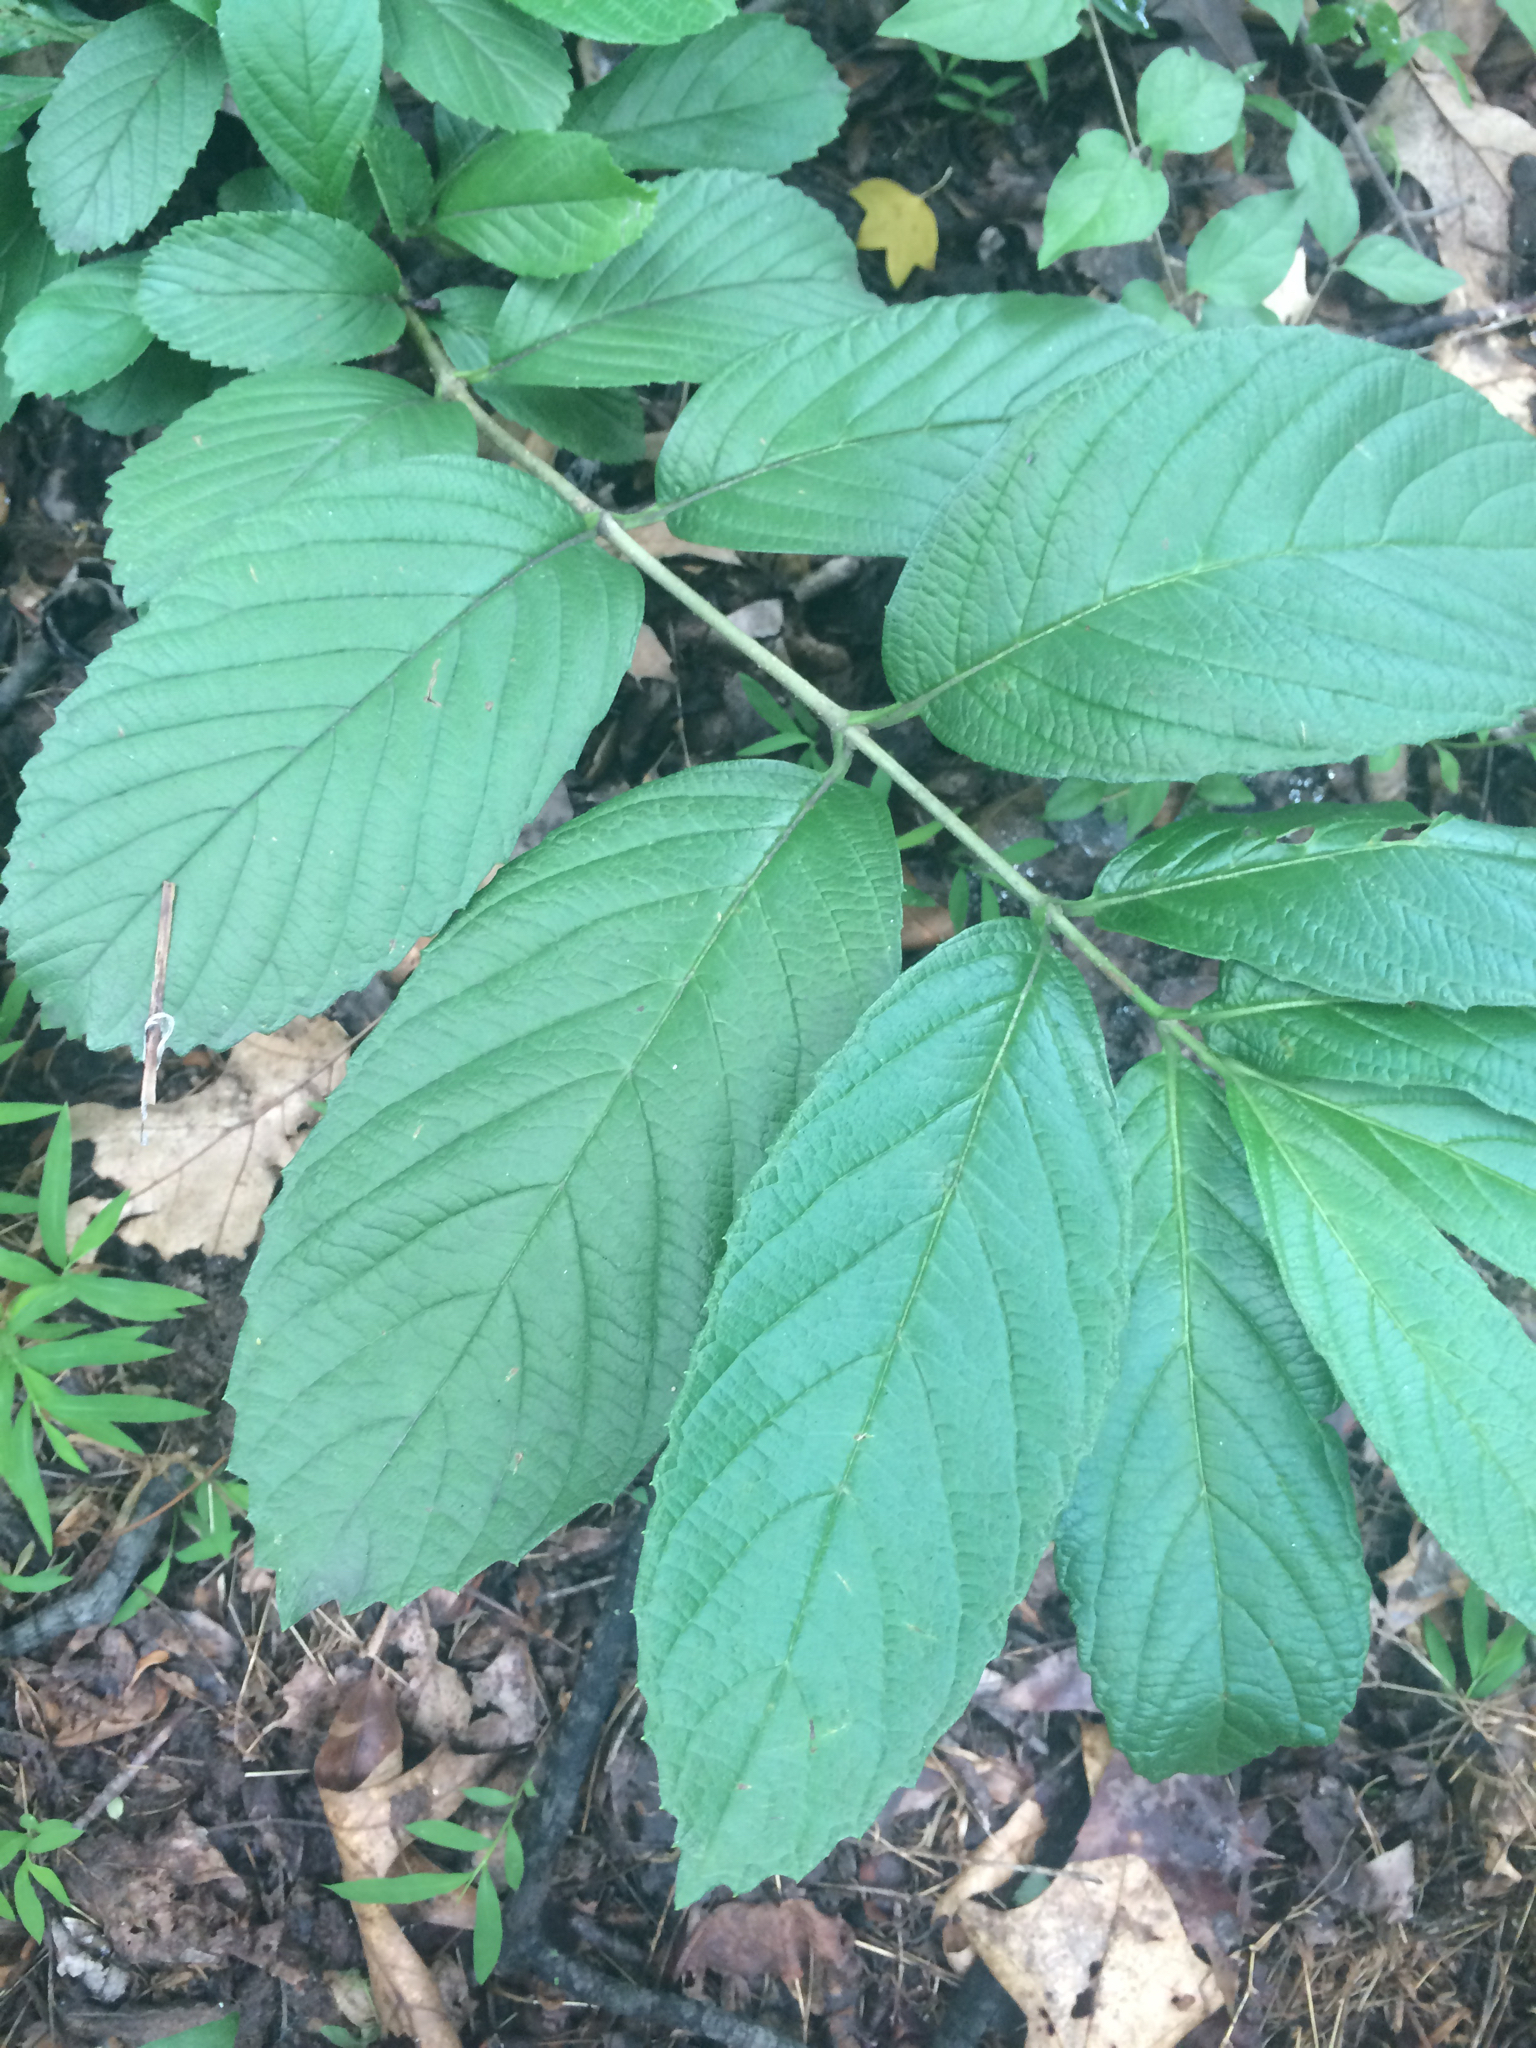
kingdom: Plantae
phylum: Tracheophyta
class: Magnoliopsida
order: Dipsacales
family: Viburnaceae
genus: Viburnum
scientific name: Viburnum sieboldii
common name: Siebold's arrowwood
